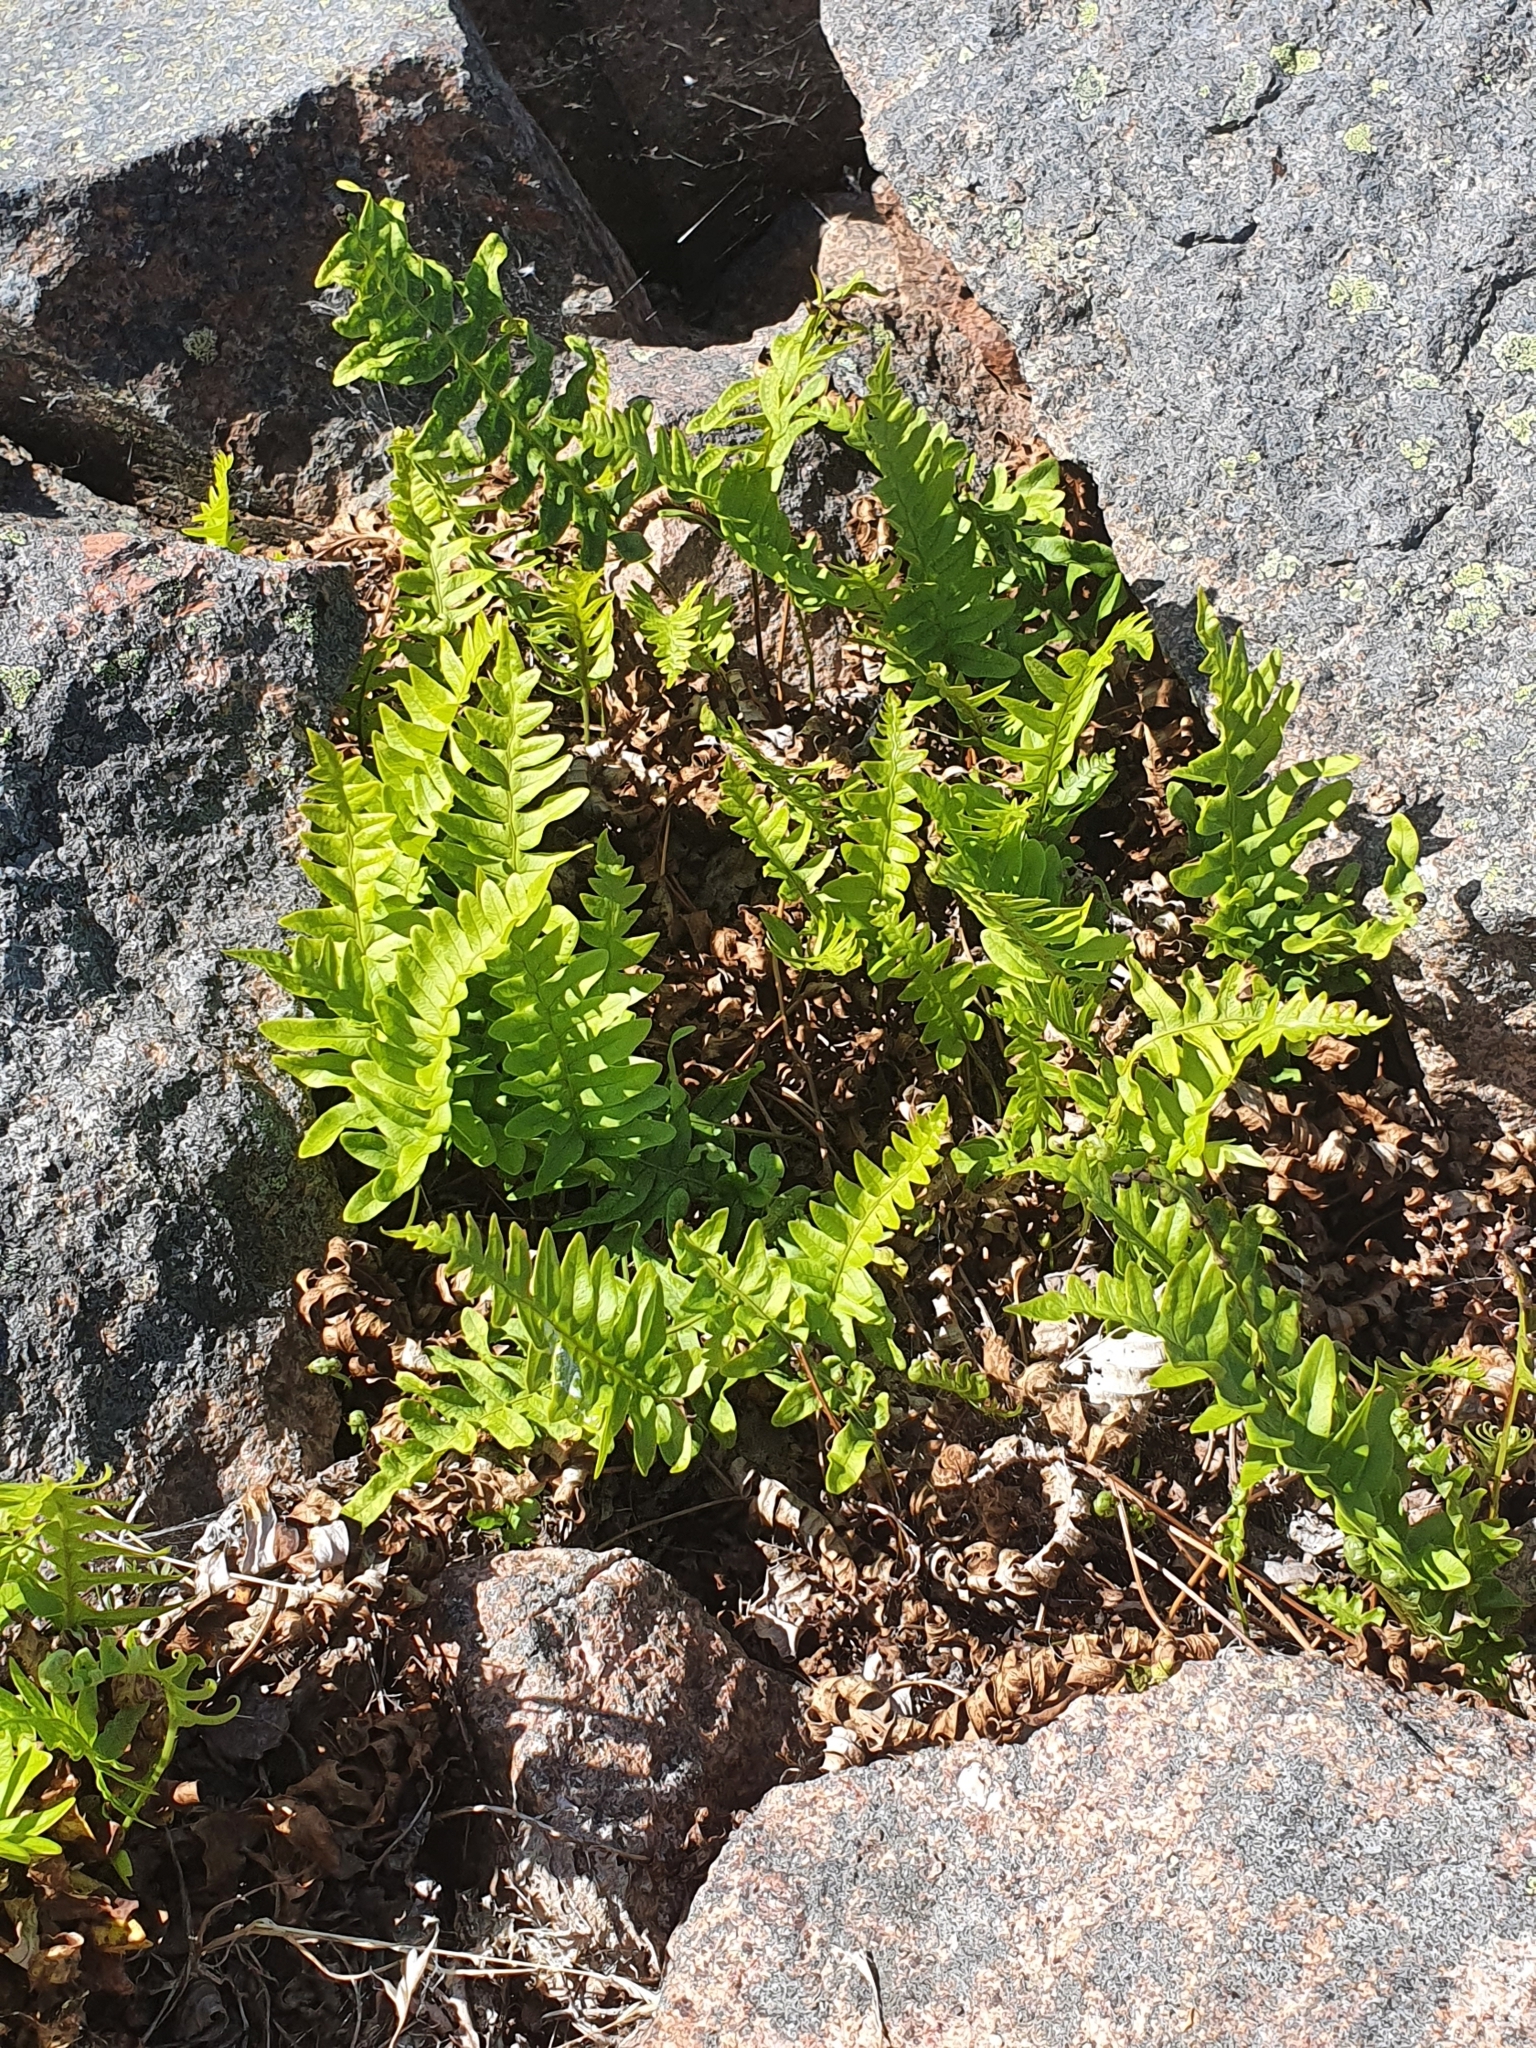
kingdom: Plantae
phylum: Tracheophyta
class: Polypodiopsida
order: Polypodiales
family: Polypodiaceae
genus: Polypodium
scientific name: Polypodium vulgare
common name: Common polypody
